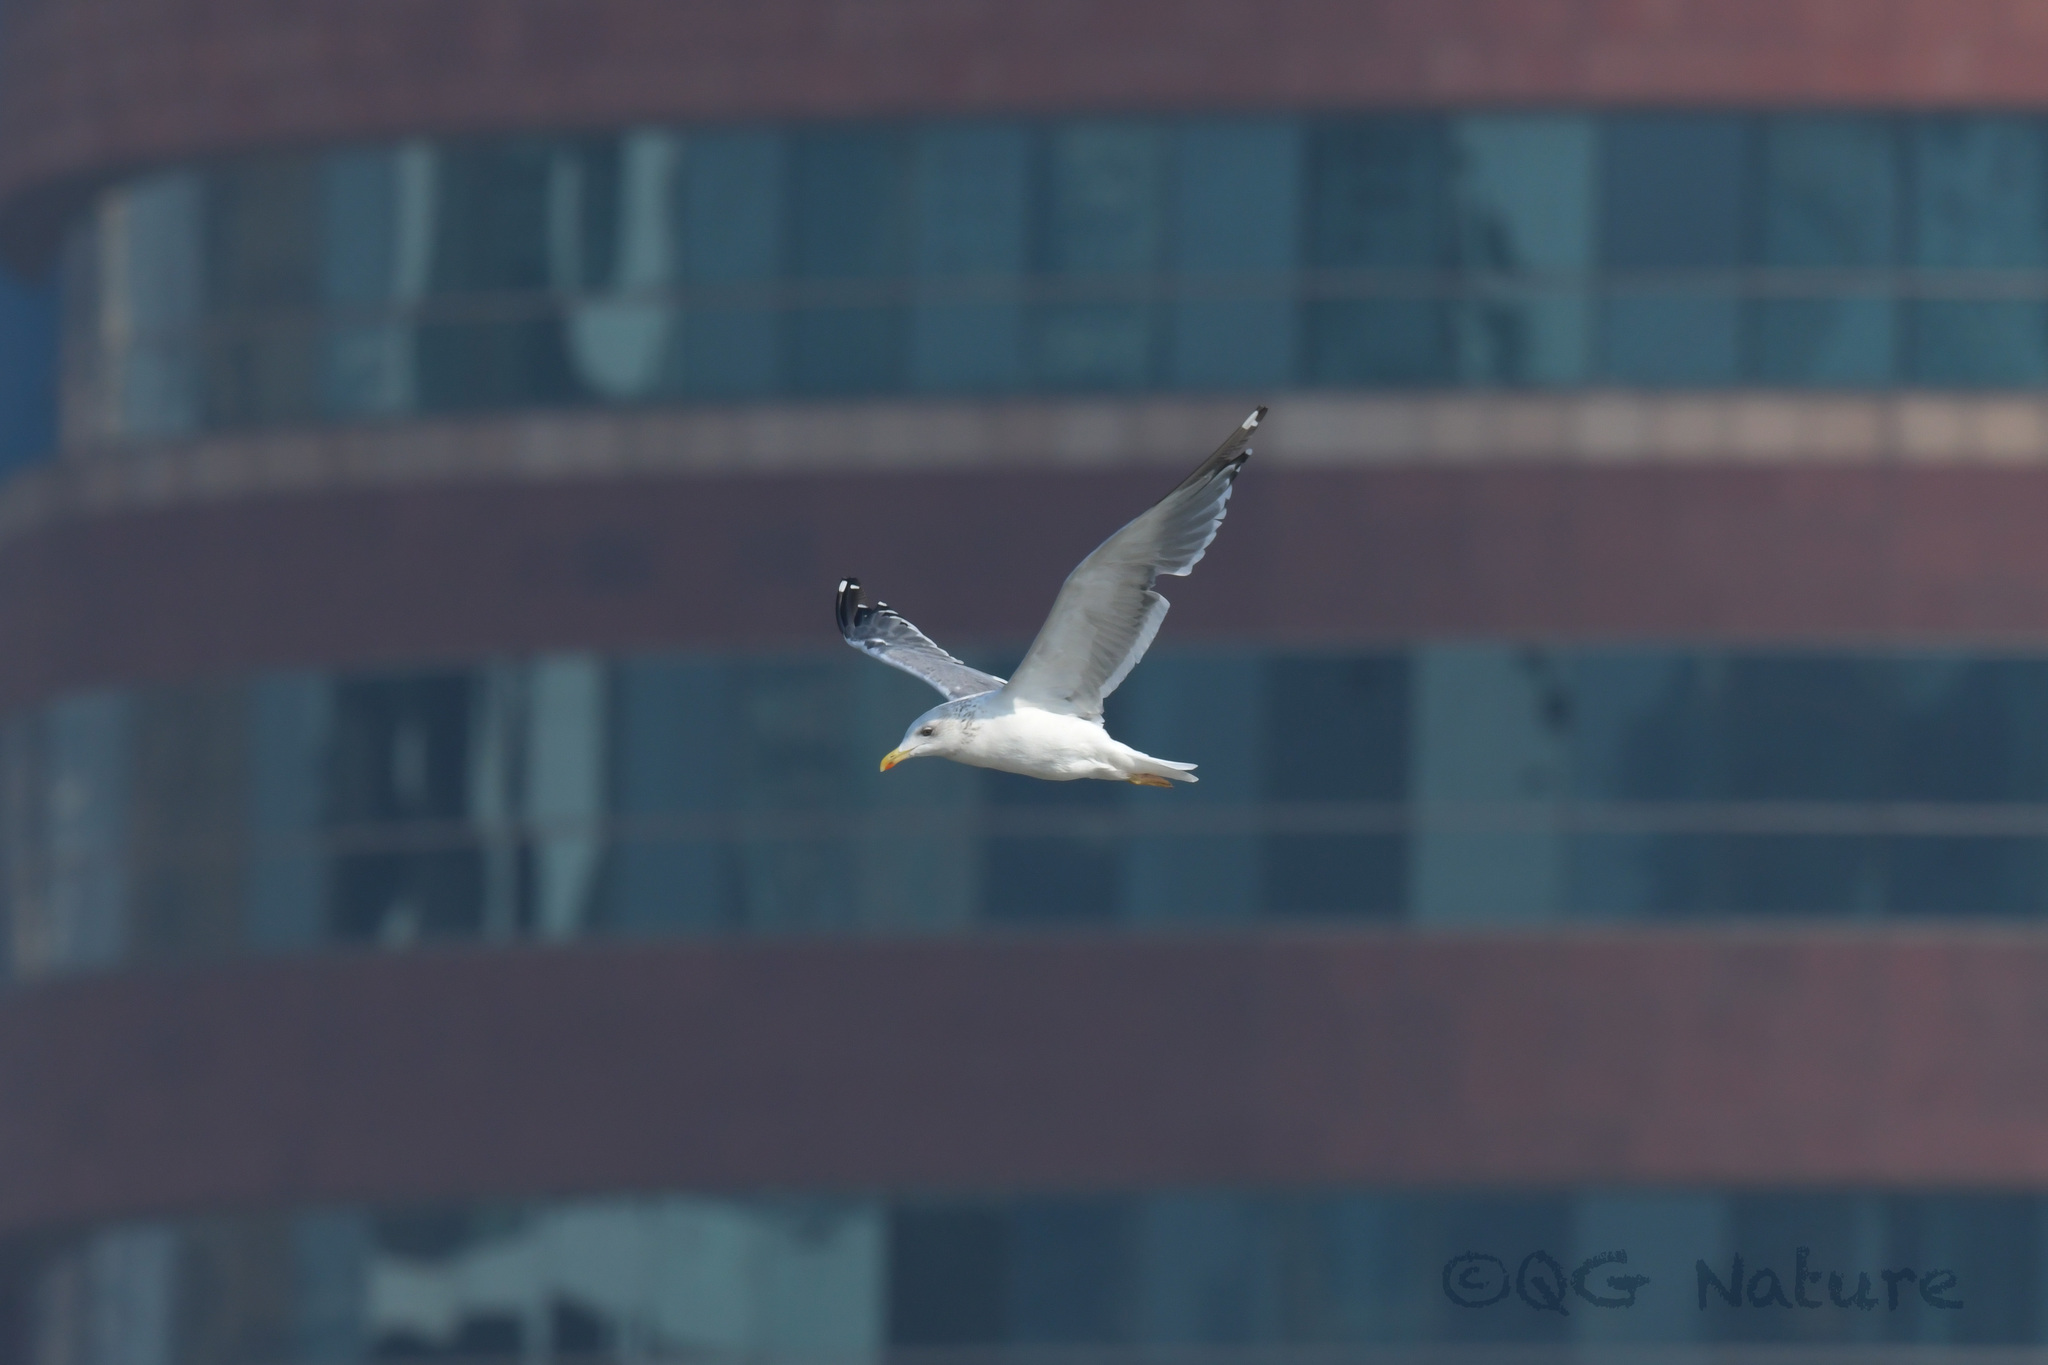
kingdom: Animalia
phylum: Chordata
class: Aves
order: Charadriiformes
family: Laridae
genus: Larus
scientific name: Larus fuscus
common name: Lesser black-backed gull
